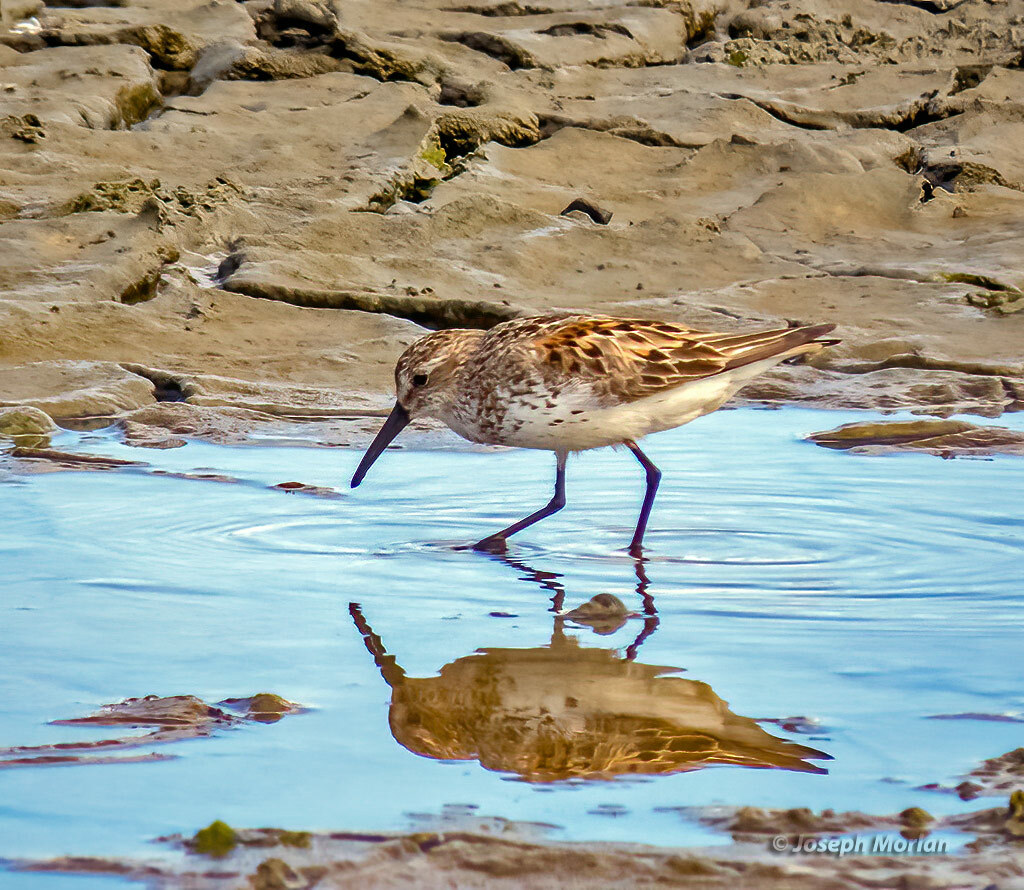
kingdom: Animalia
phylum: Chordata
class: Aves
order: Charadriiformes
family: Scolopacidae
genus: Calidris
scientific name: Calidris mauri
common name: Western sandpiper
